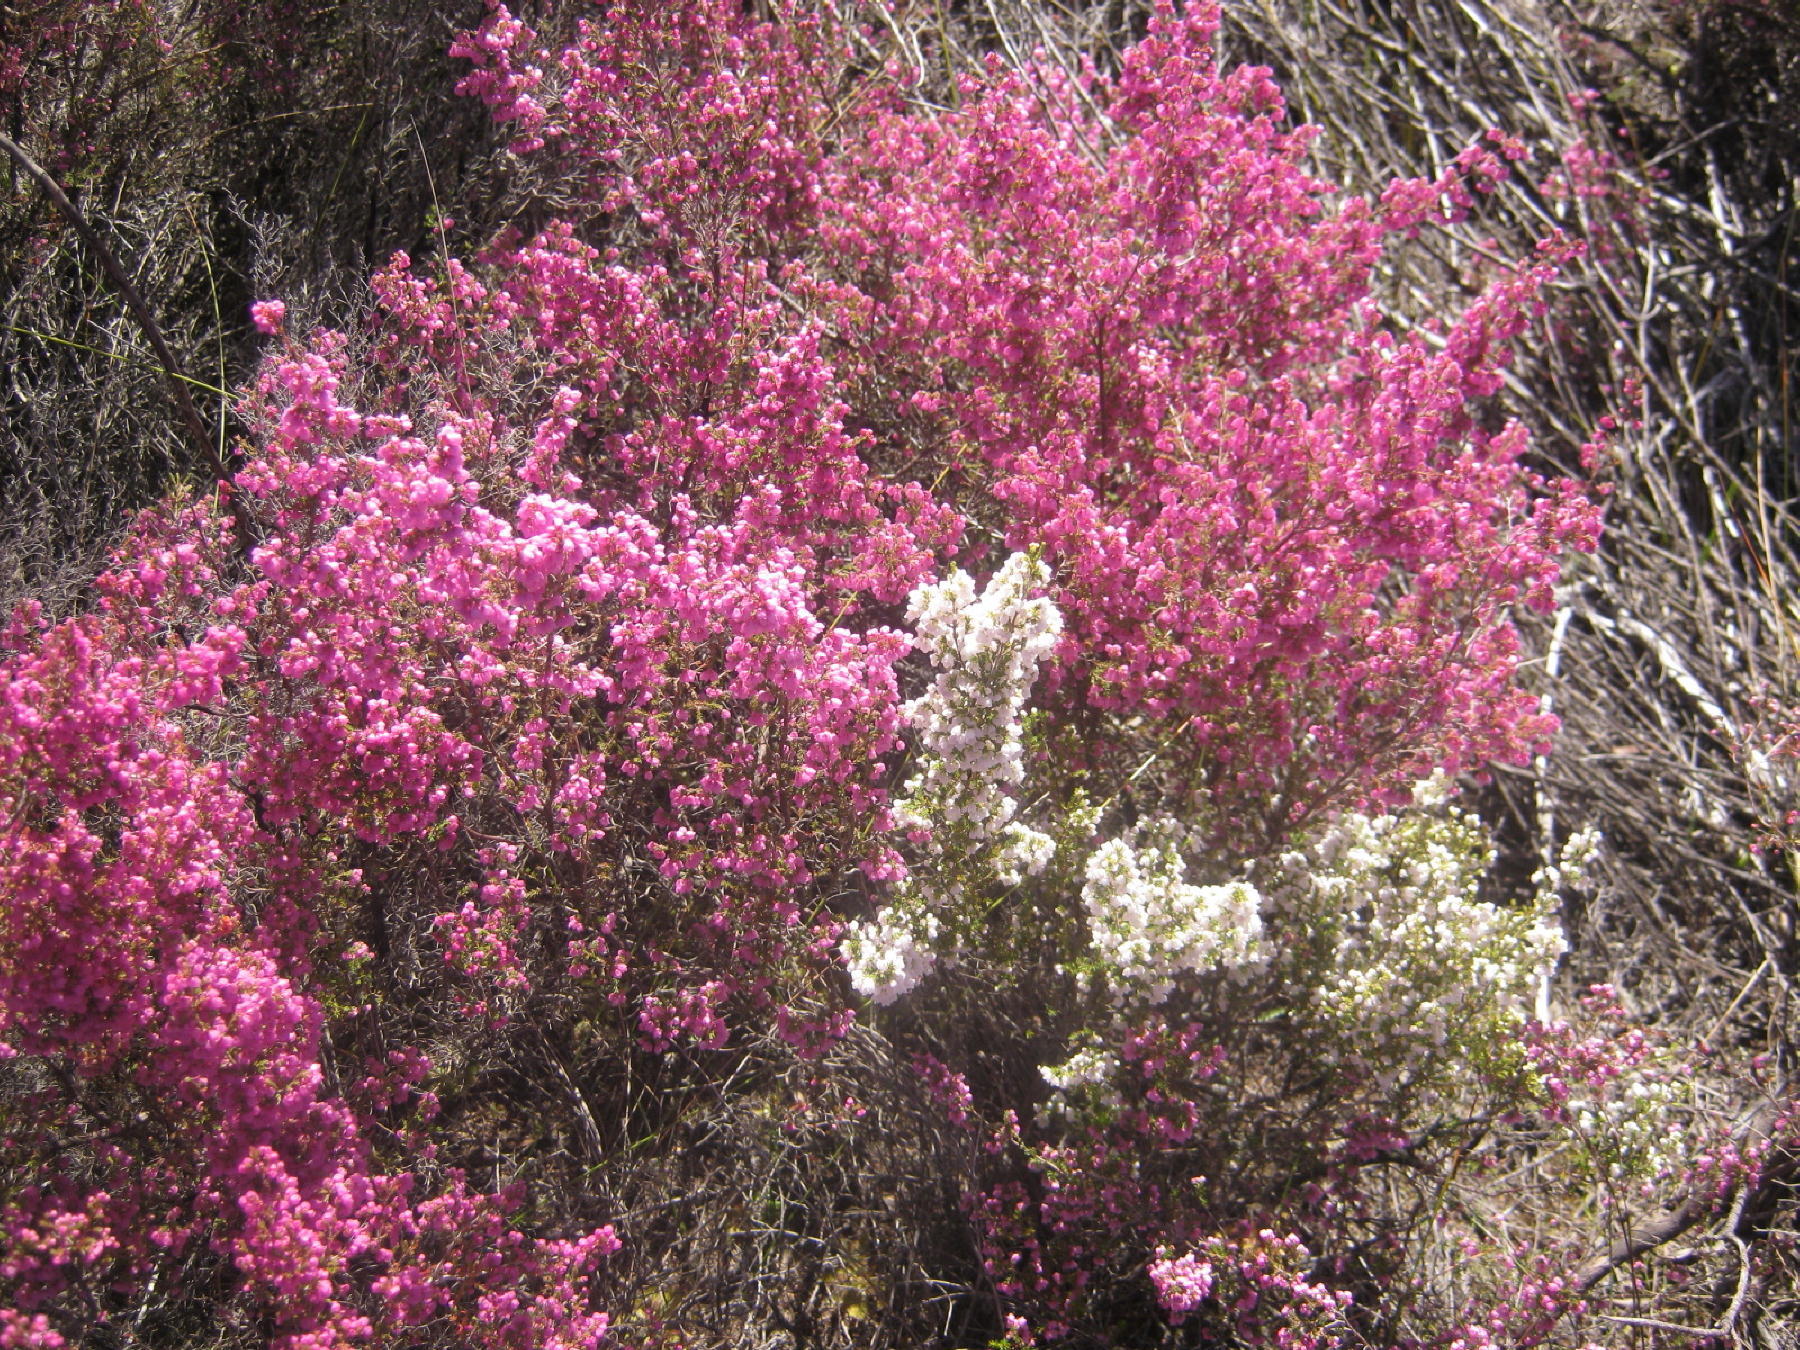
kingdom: Plantae
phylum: Tracheophyta
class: Magnoliopsida
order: Ericales
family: Ericaceae
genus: Erica
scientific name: Erica quadrangularis
